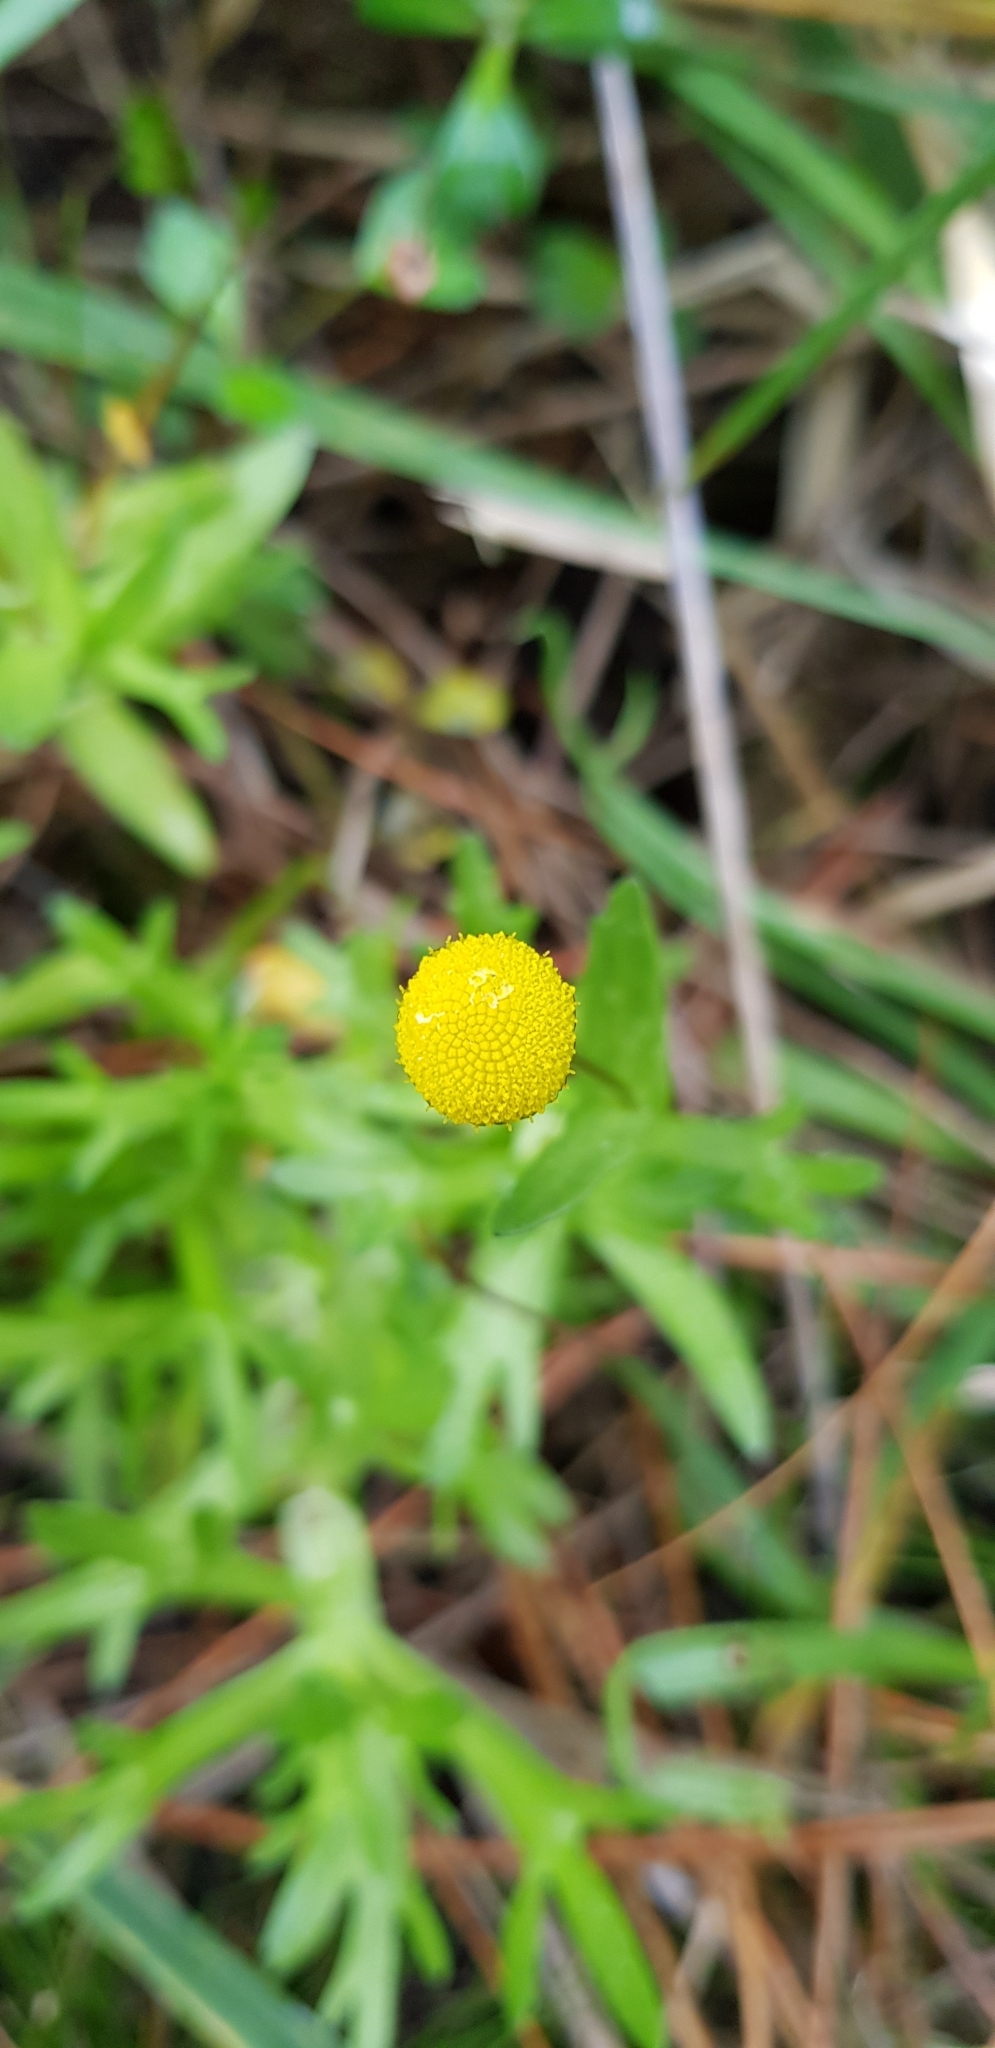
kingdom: Plantae
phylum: Tracheophyta
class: Magnoliopsida
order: Asterales
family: Asteraceae
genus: Cotula
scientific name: Cotula coronopifolia
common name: Buttonweed
